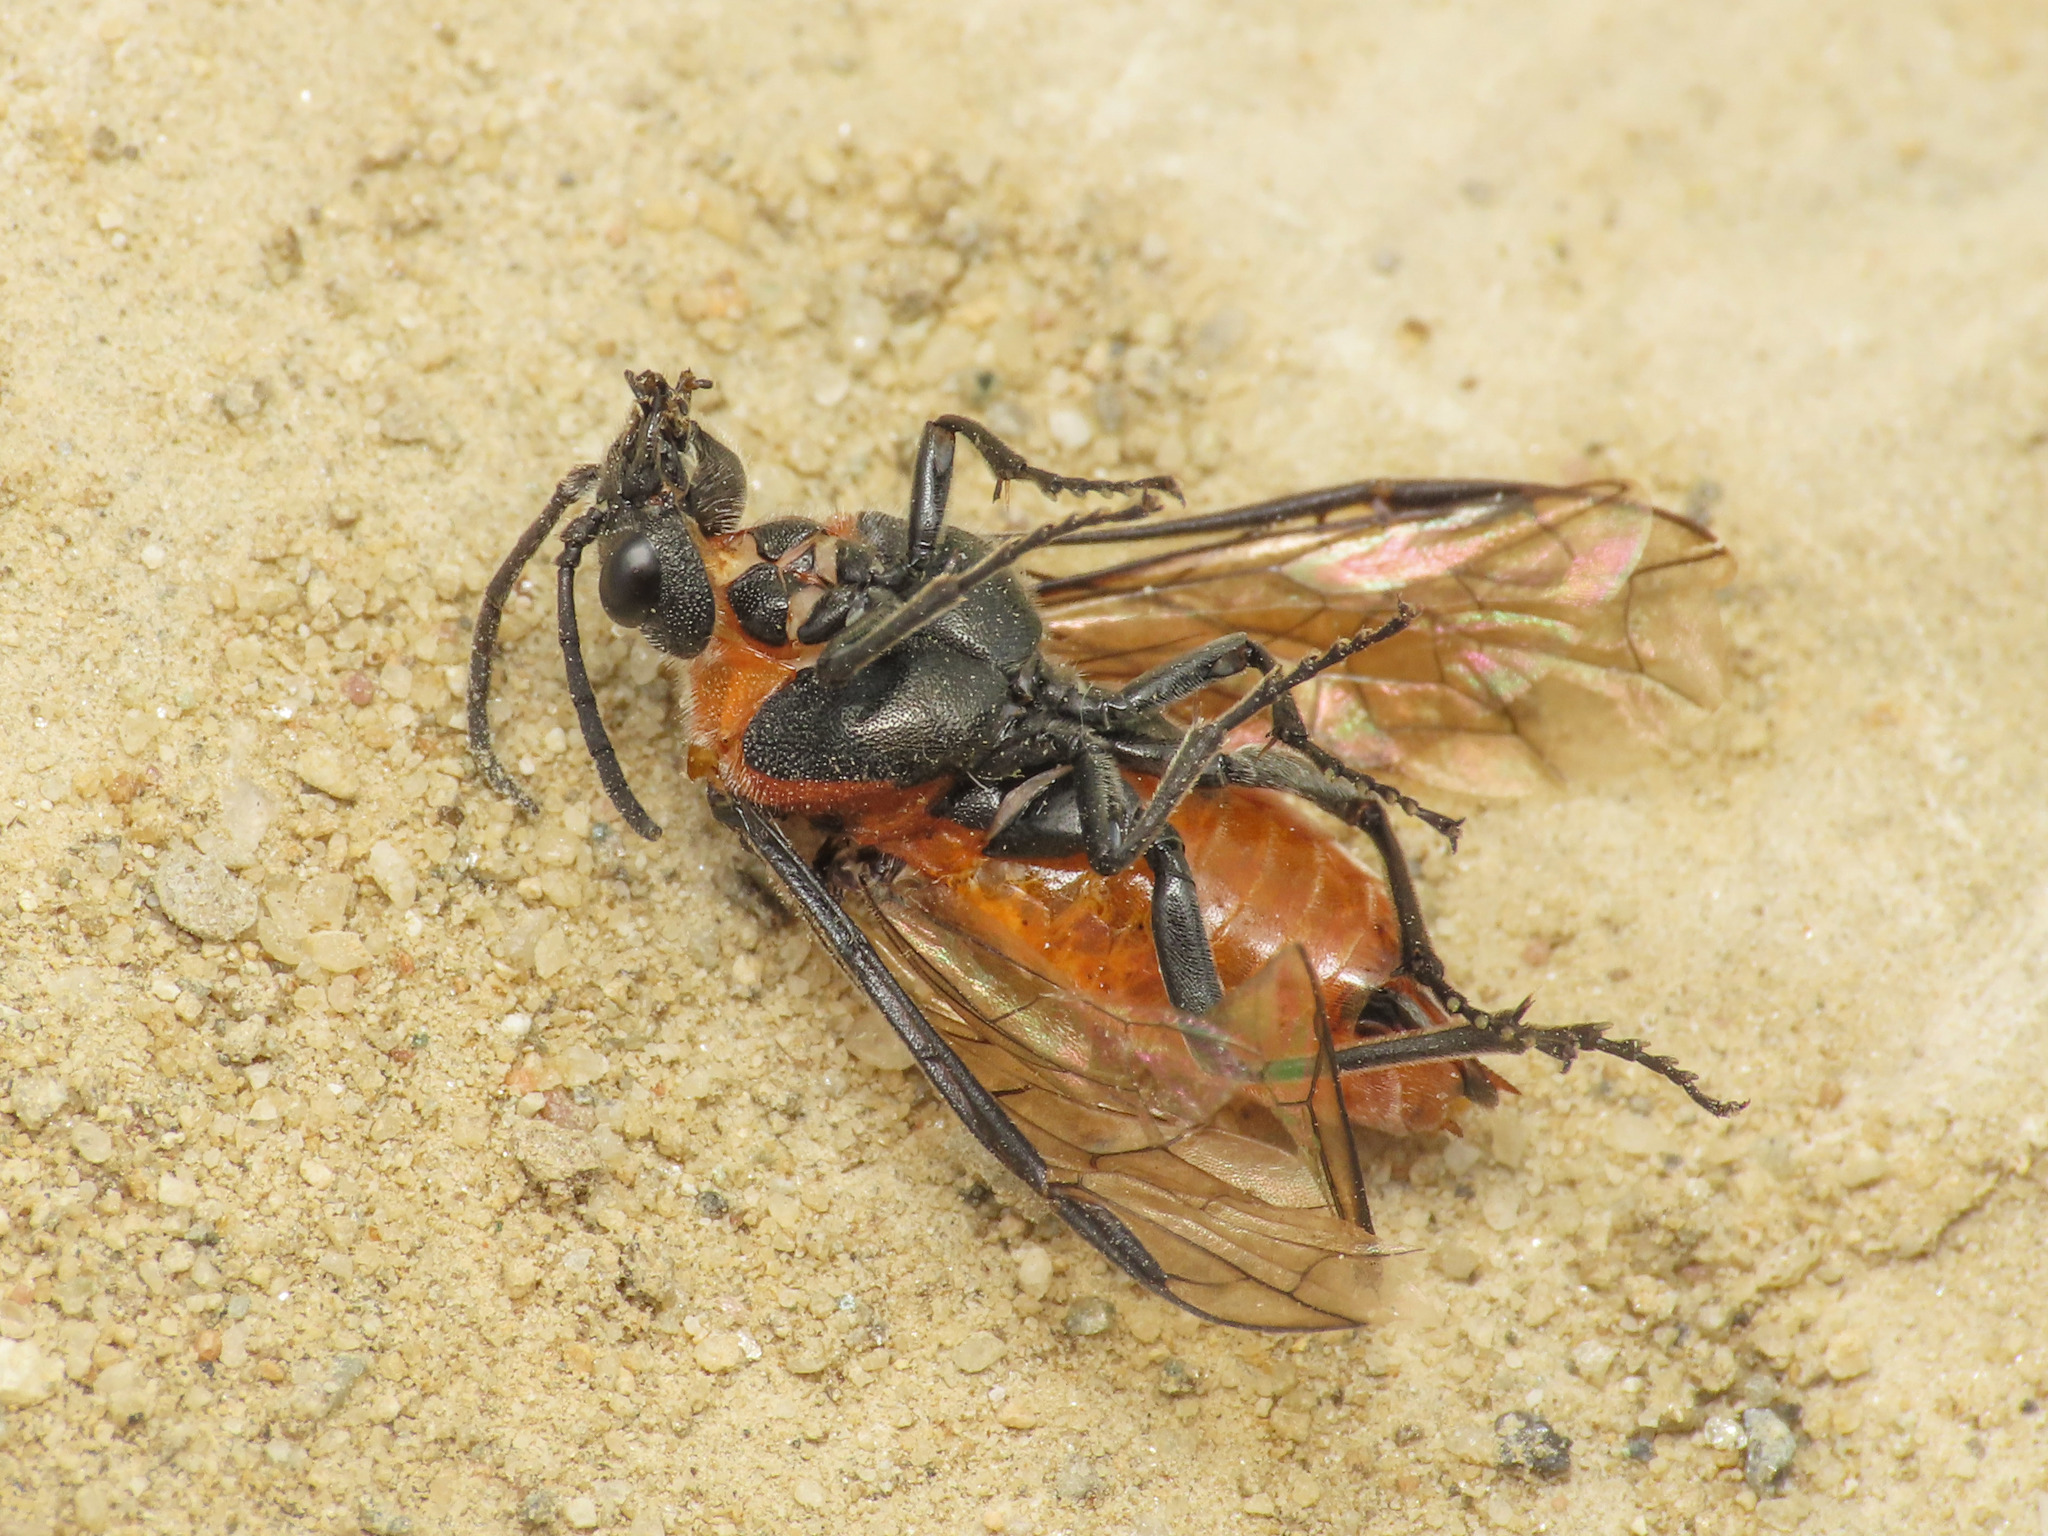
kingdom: Animalia
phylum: Arthropoda
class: Insecta
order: Hymenoptera
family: Tenthredinidae
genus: Dolerus
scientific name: Dolerus triplicatus
